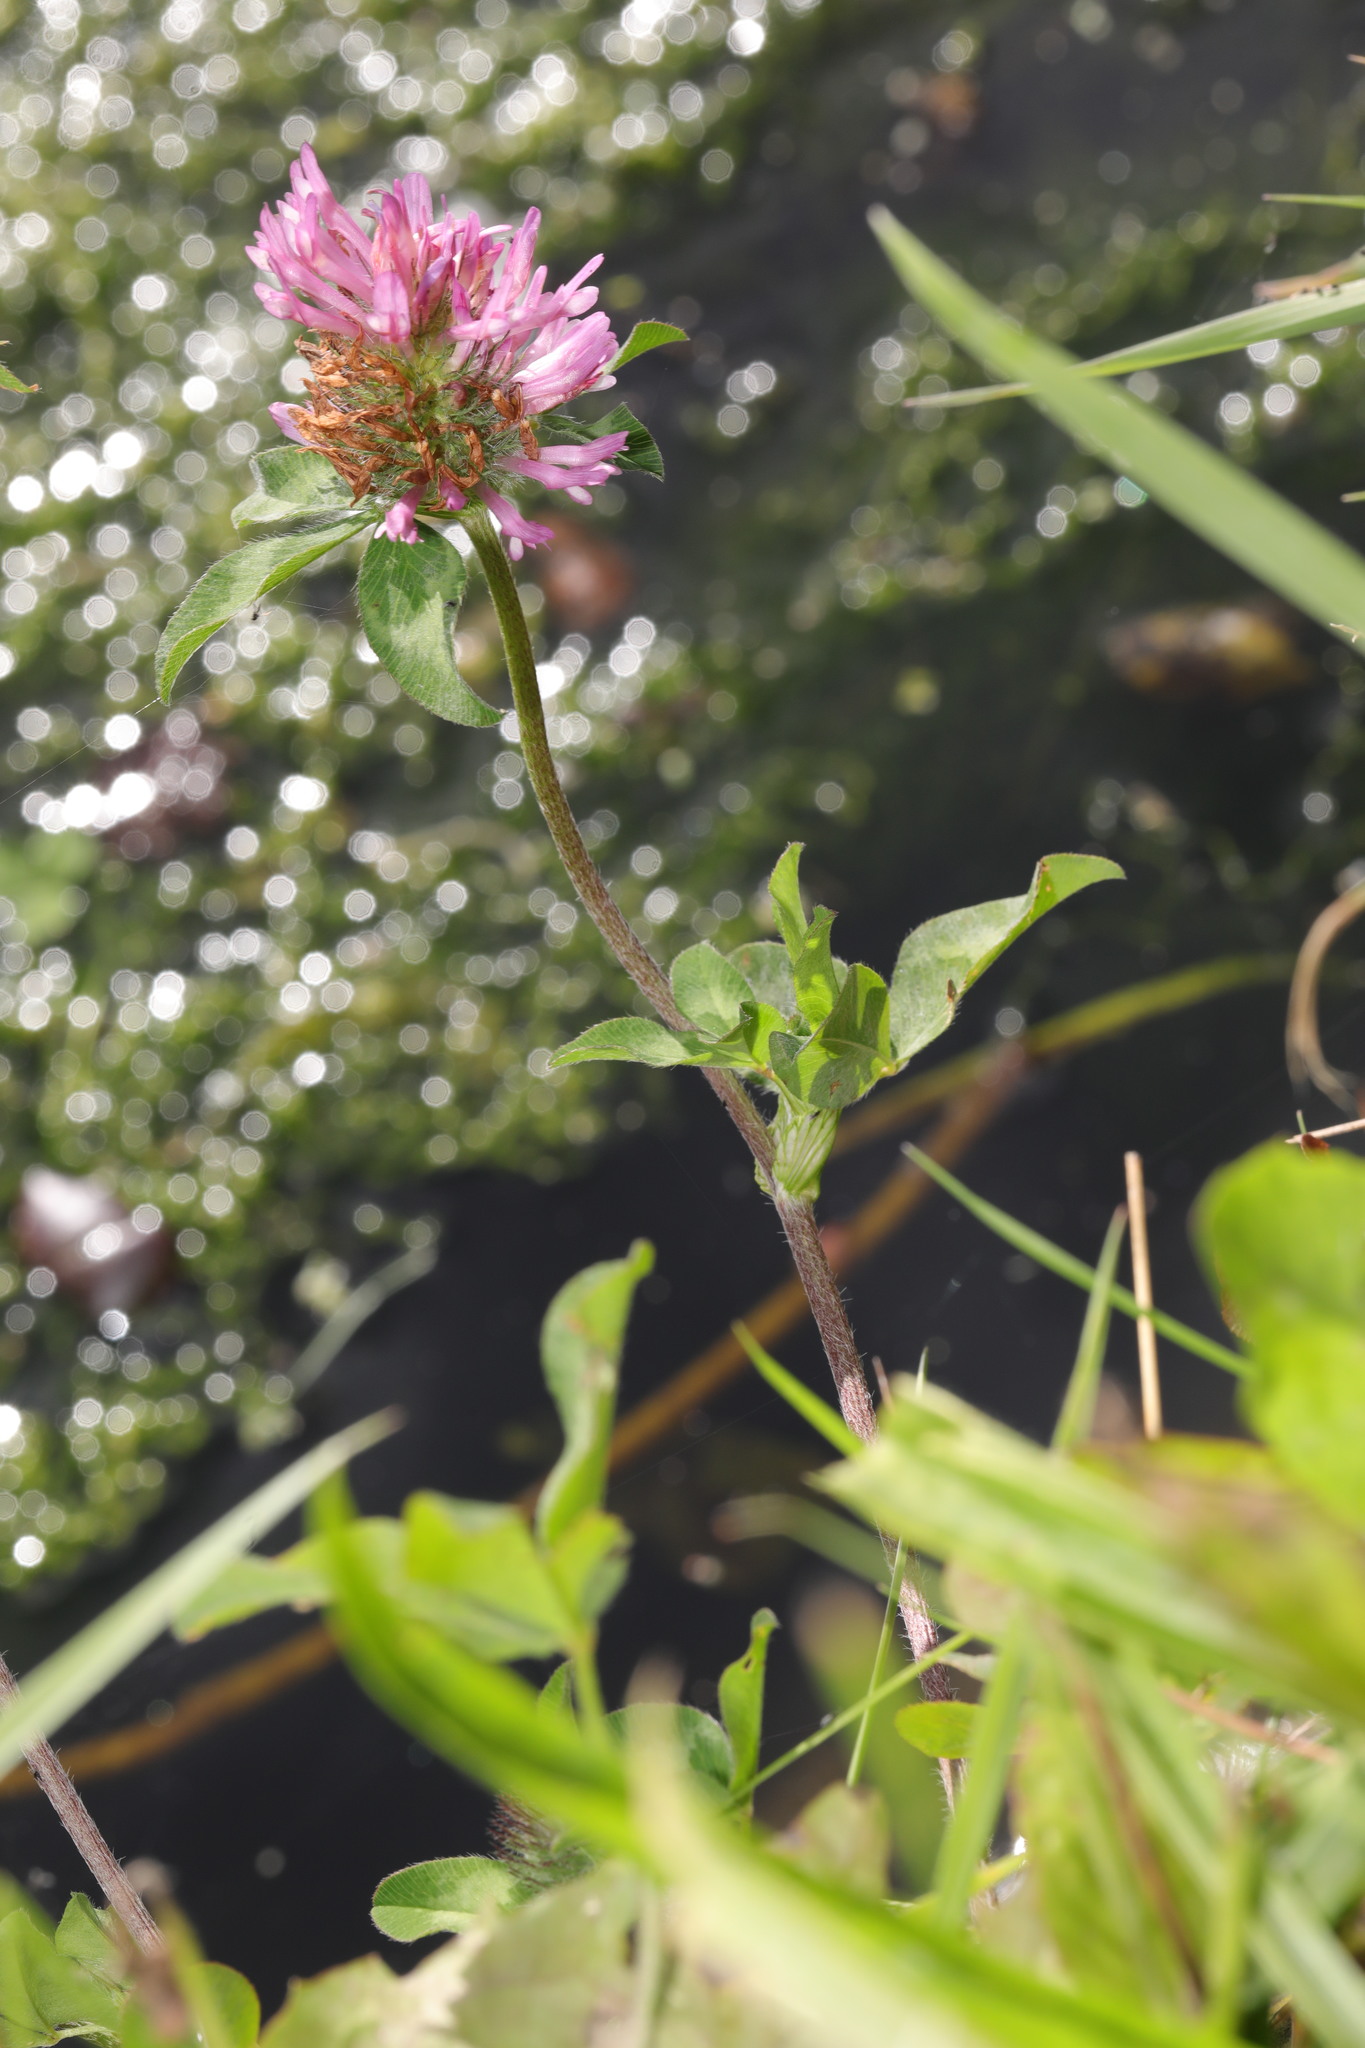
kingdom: Plantae
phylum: Tracheophyta
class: Magnoliopsida
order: Fabales
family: Fabaceae
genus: Trifolium
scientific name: Trifolium pratense
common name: Red clover
